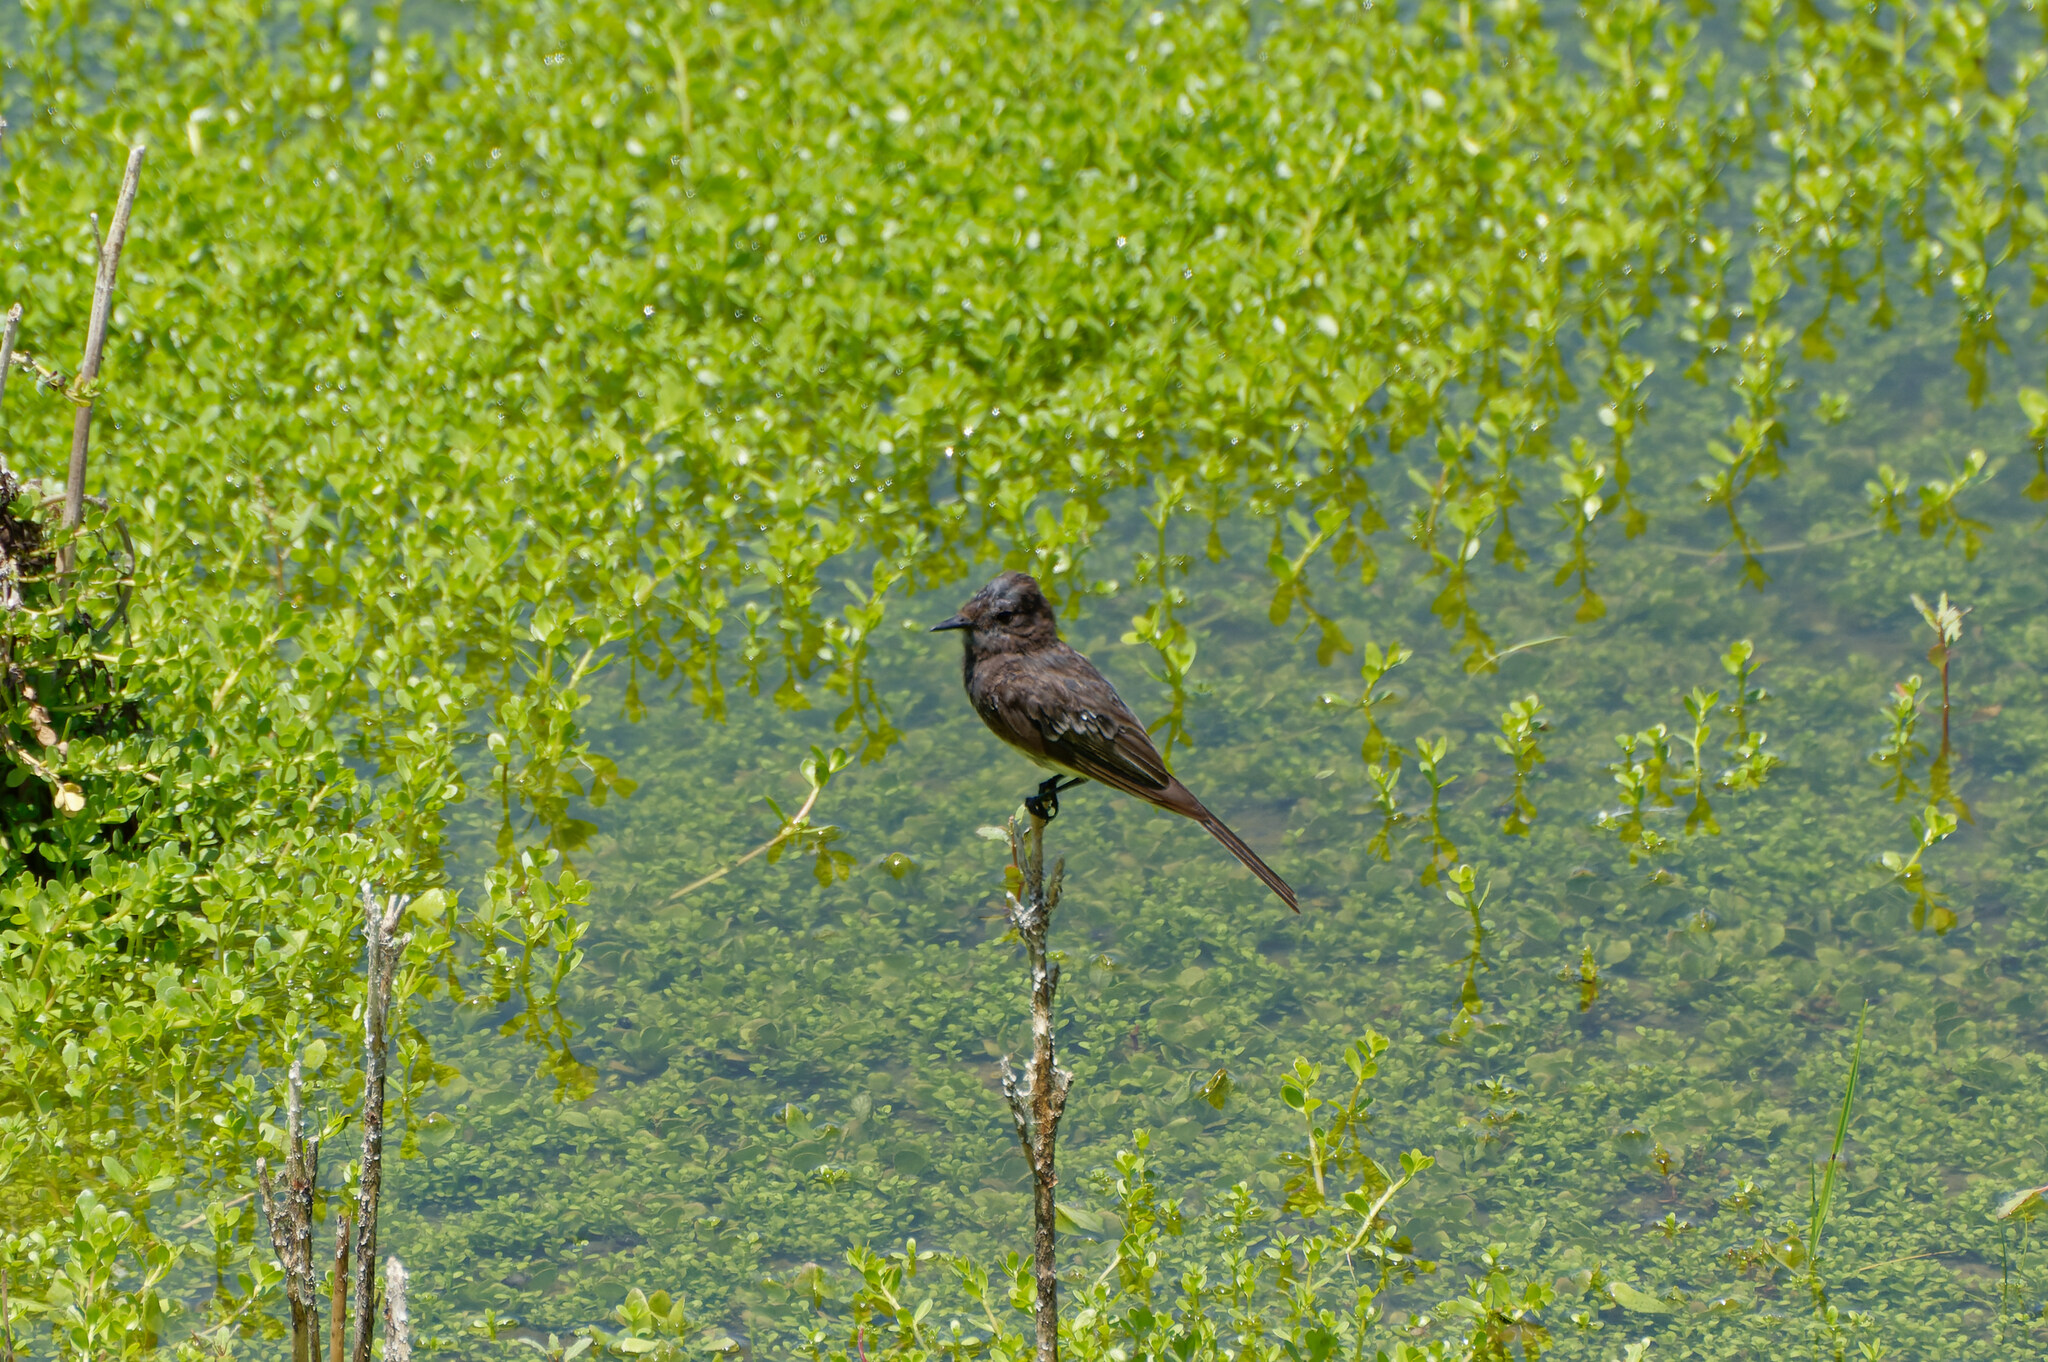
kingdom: Animalia
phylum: Chordata
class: Aves
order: Passeriformes
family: Tyrannidae
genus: Sayornis
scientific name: Sayornis nigricans
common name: Black phoebe
